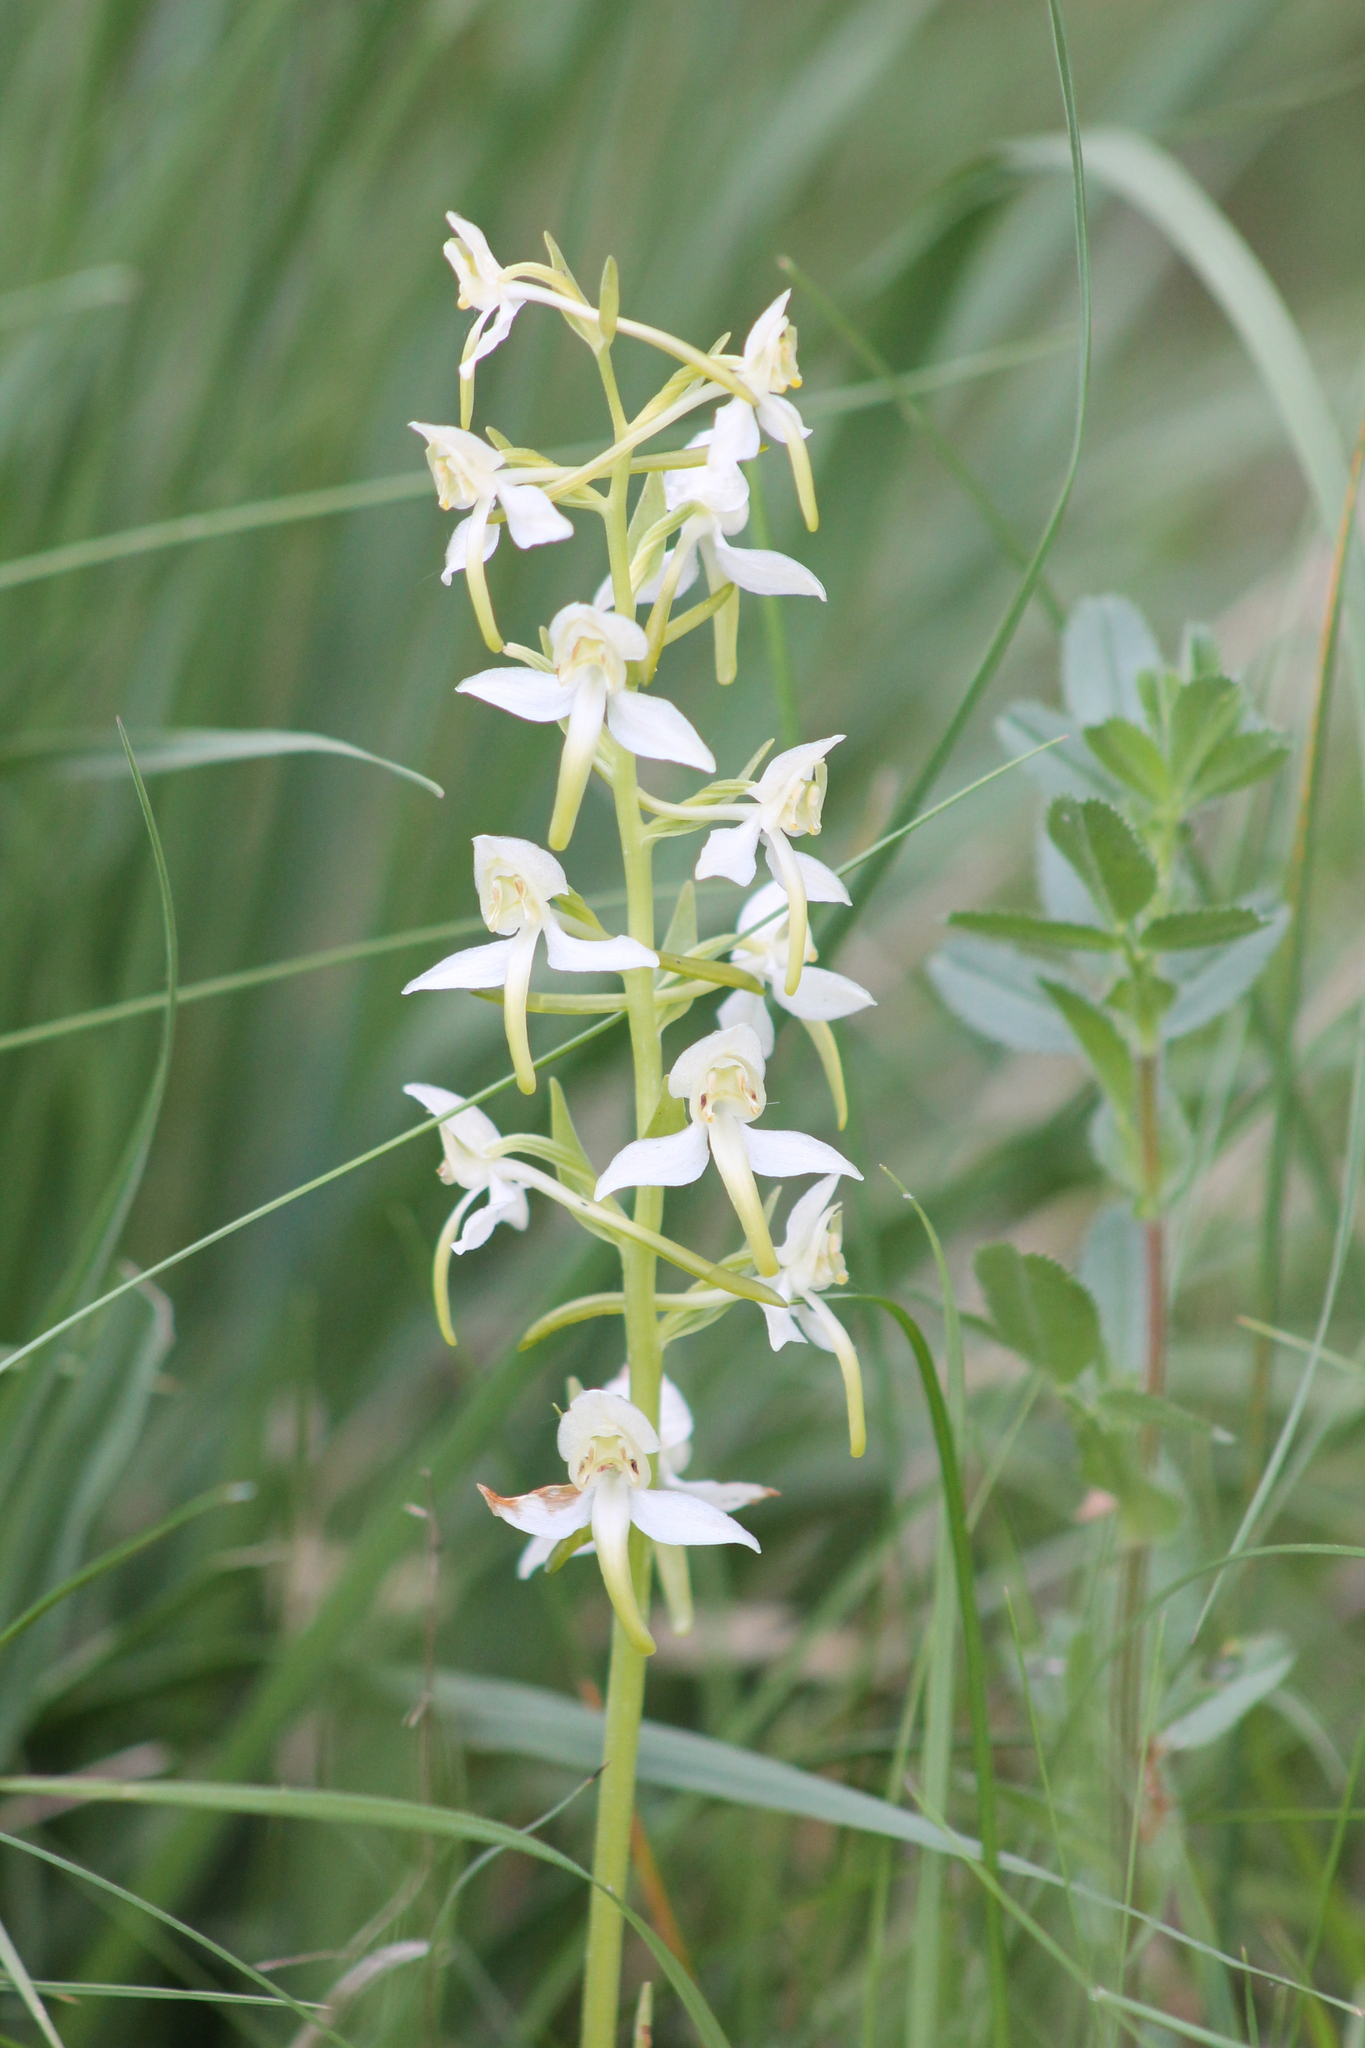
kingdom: Plantae
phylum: Tracheophyta
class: Liliopsida
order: Asparagales
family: Orchidaceae
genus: Platanthera
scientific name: Platanthera chlorantha
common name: Greater butterfly-orchid
